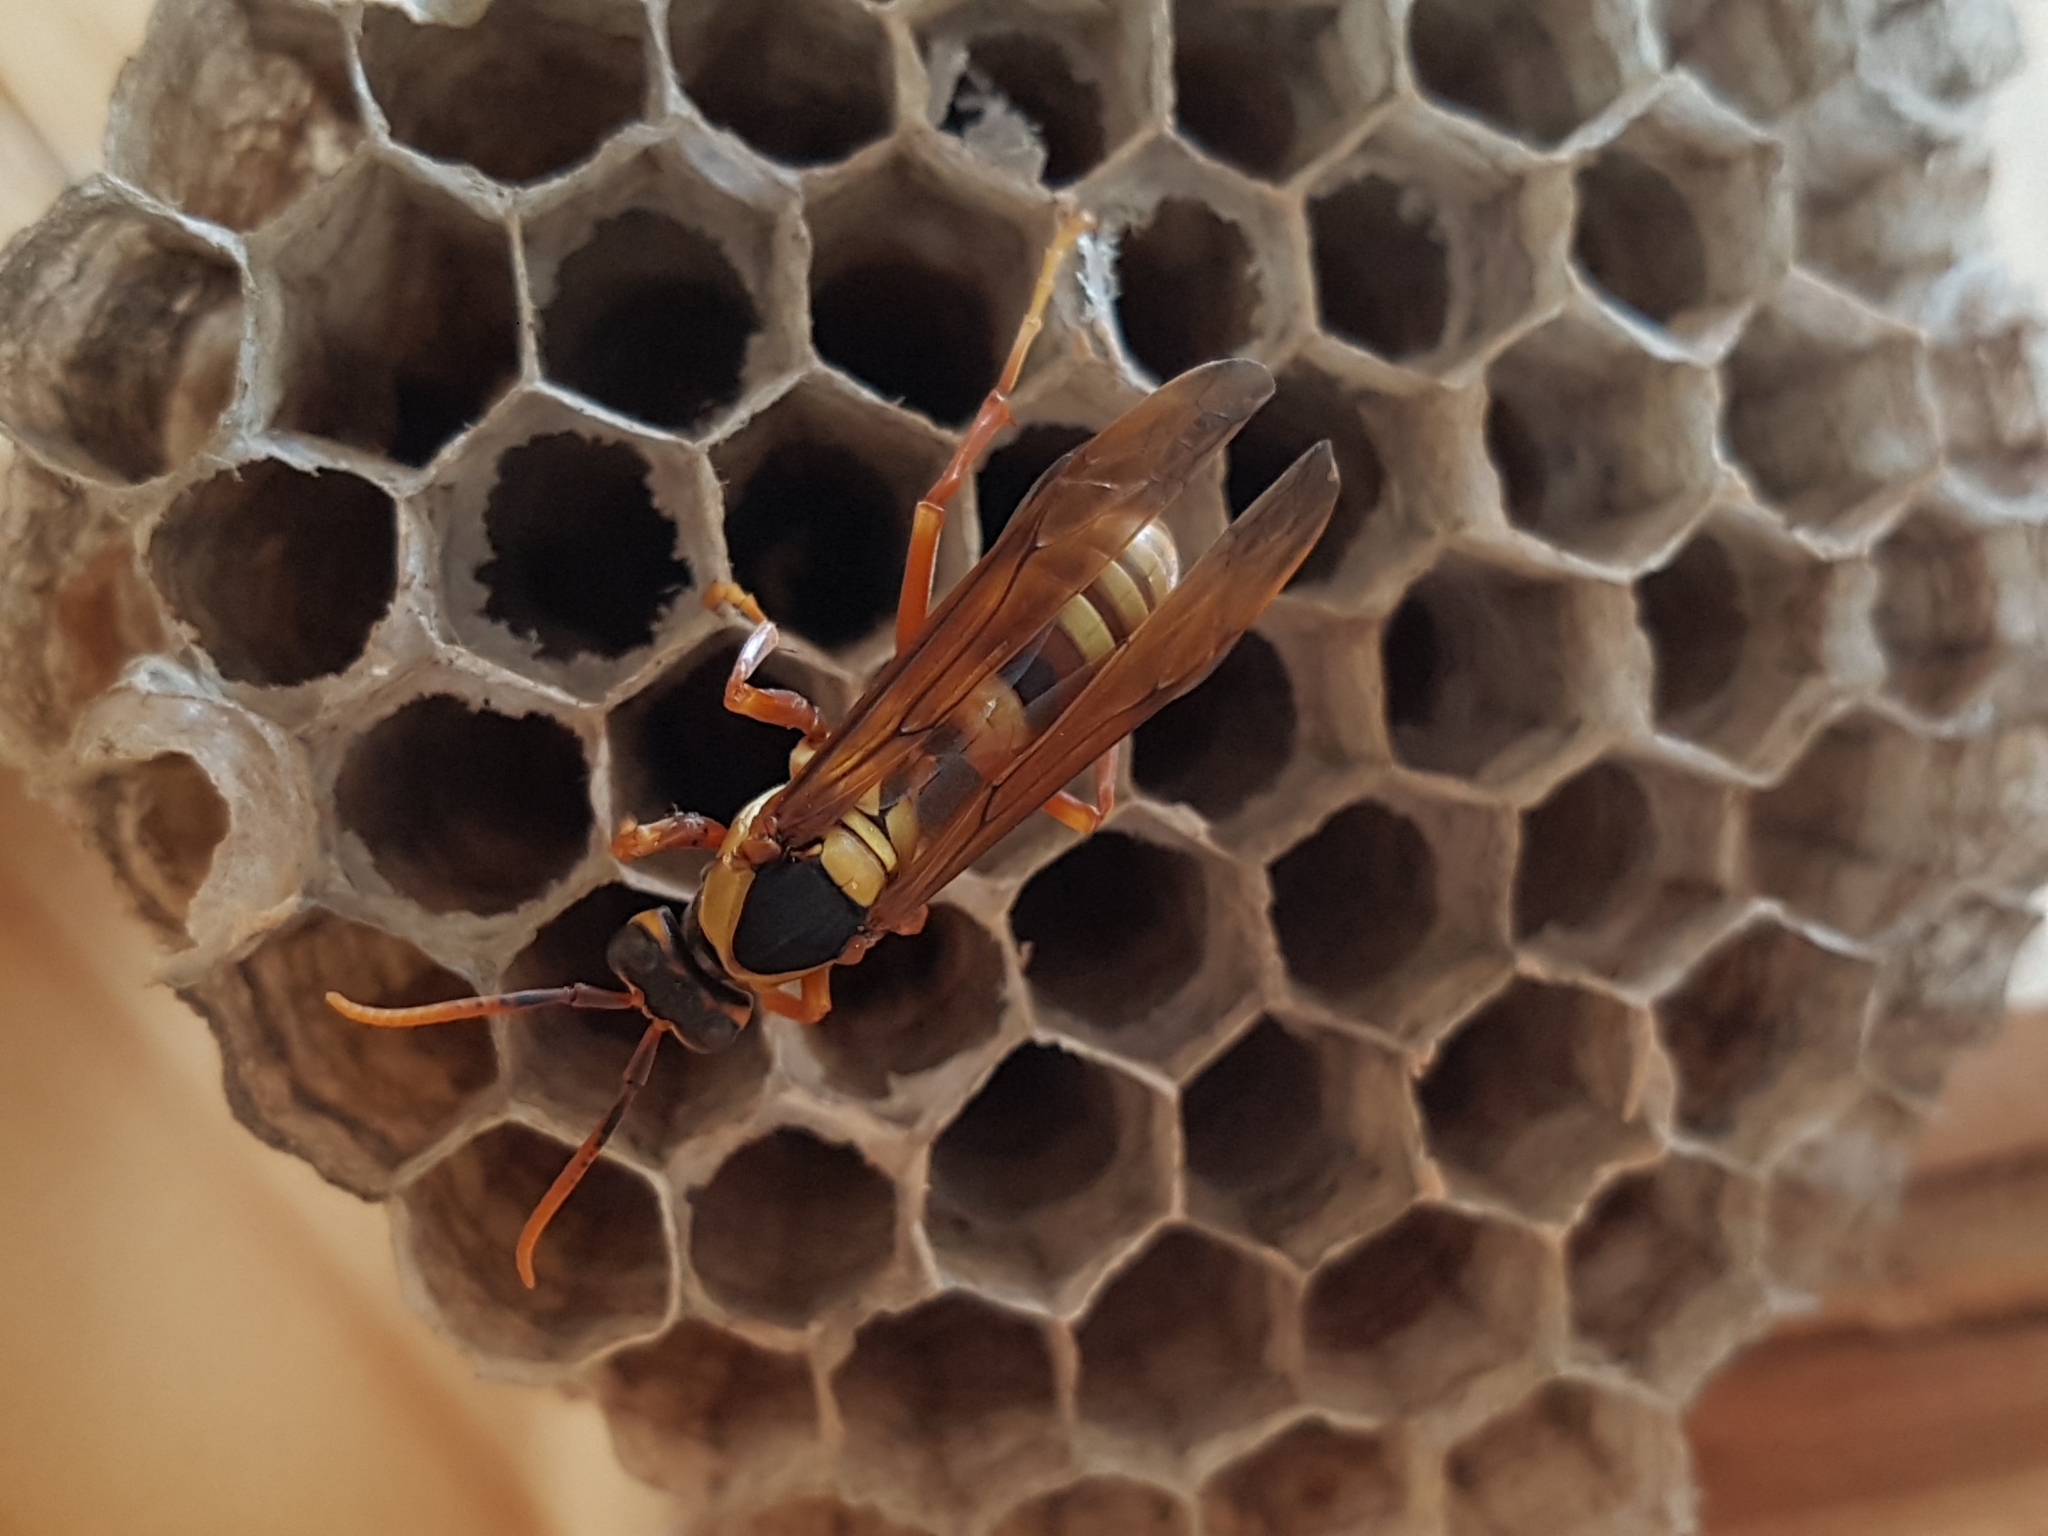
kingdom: Animalia
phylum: Arthropoda
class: Insecta
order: Hymenoptera
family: Eumenidae
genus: Polistes
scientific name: Polistes carnifex
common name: Paper wasp
